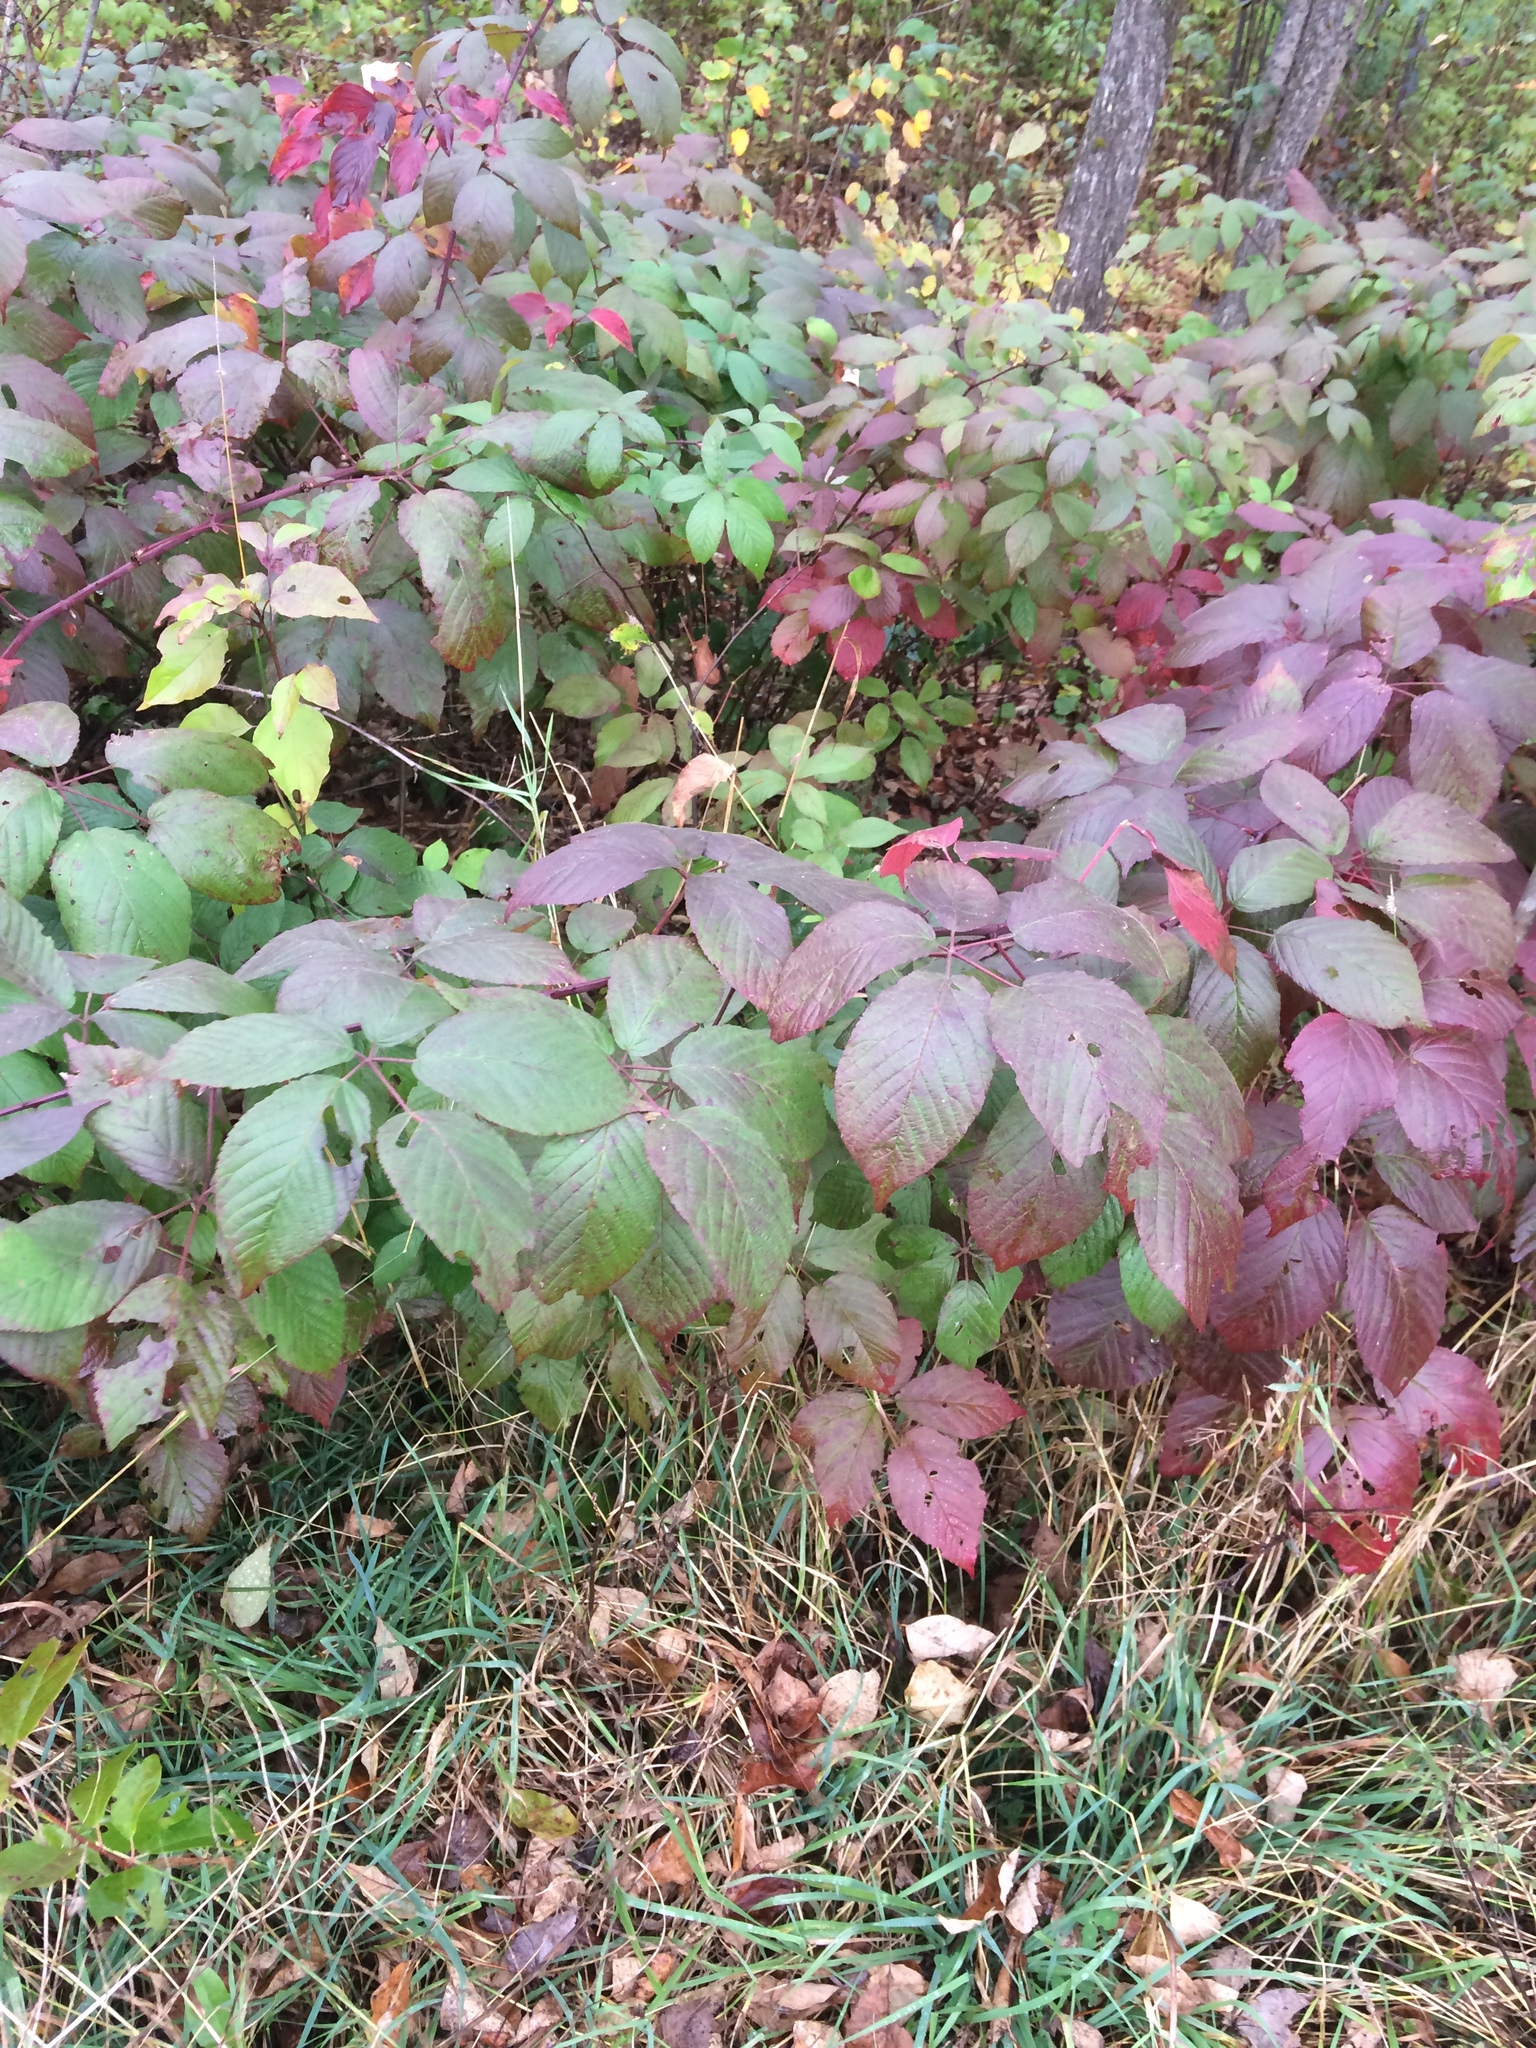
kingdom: Plantae
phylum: Tracheophyta
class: Magnoliopsida
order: Rosales
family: Rosaceae
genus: Rubus
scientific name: Rubus allegheniensis
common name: Allegheny blackberry
